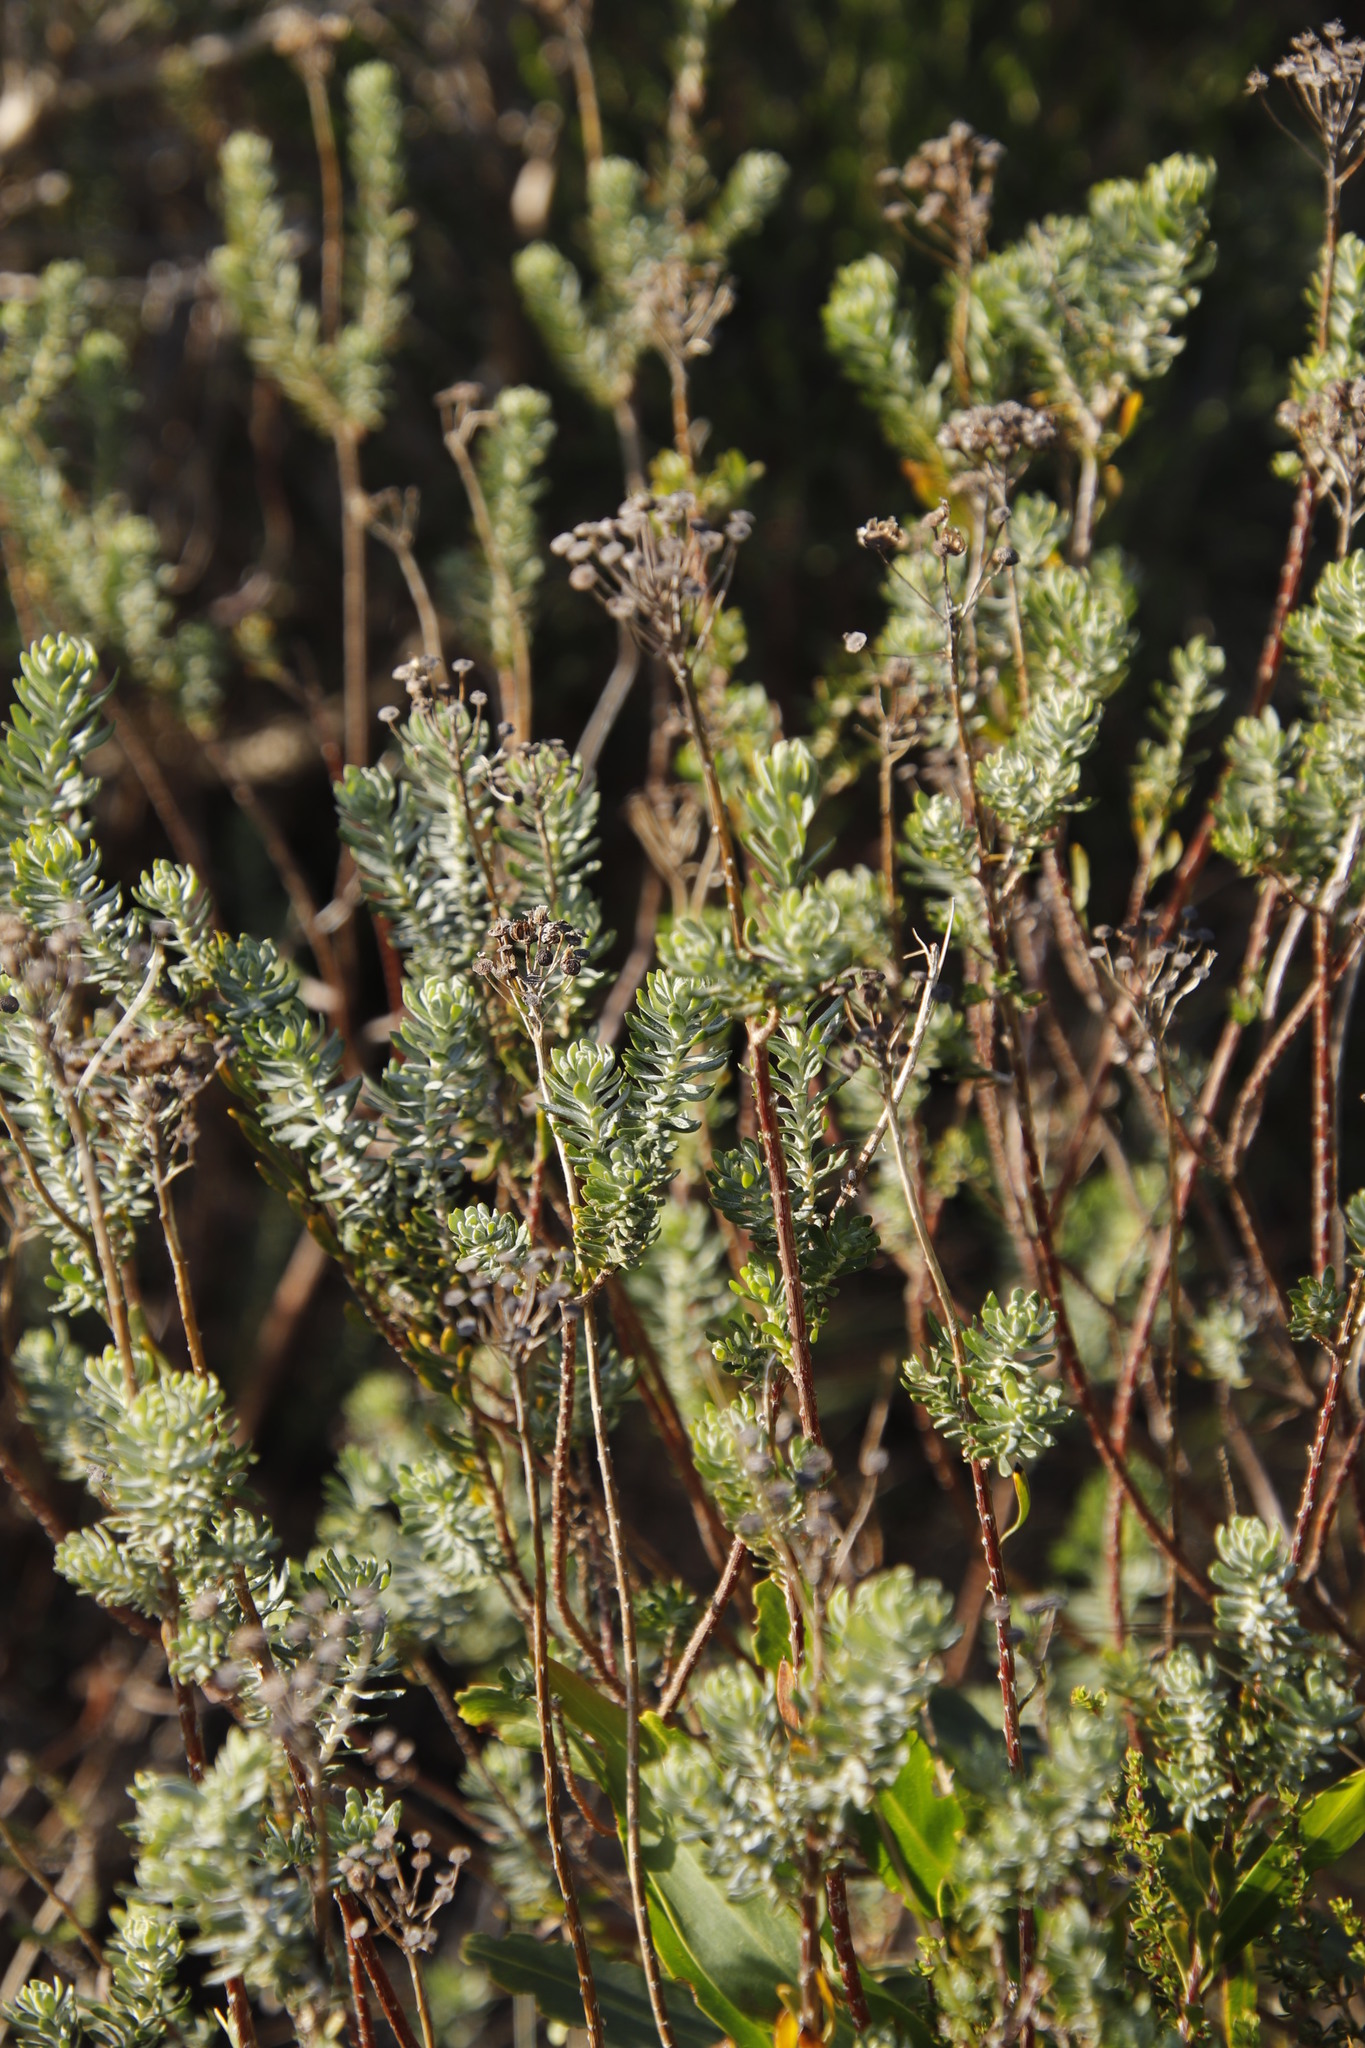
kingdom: Plantae
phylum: Tracheophyta
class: Magnoliopsida
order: Asterales
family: Asteraceae
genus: Athanasia
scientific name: Athanasia trifurcata
